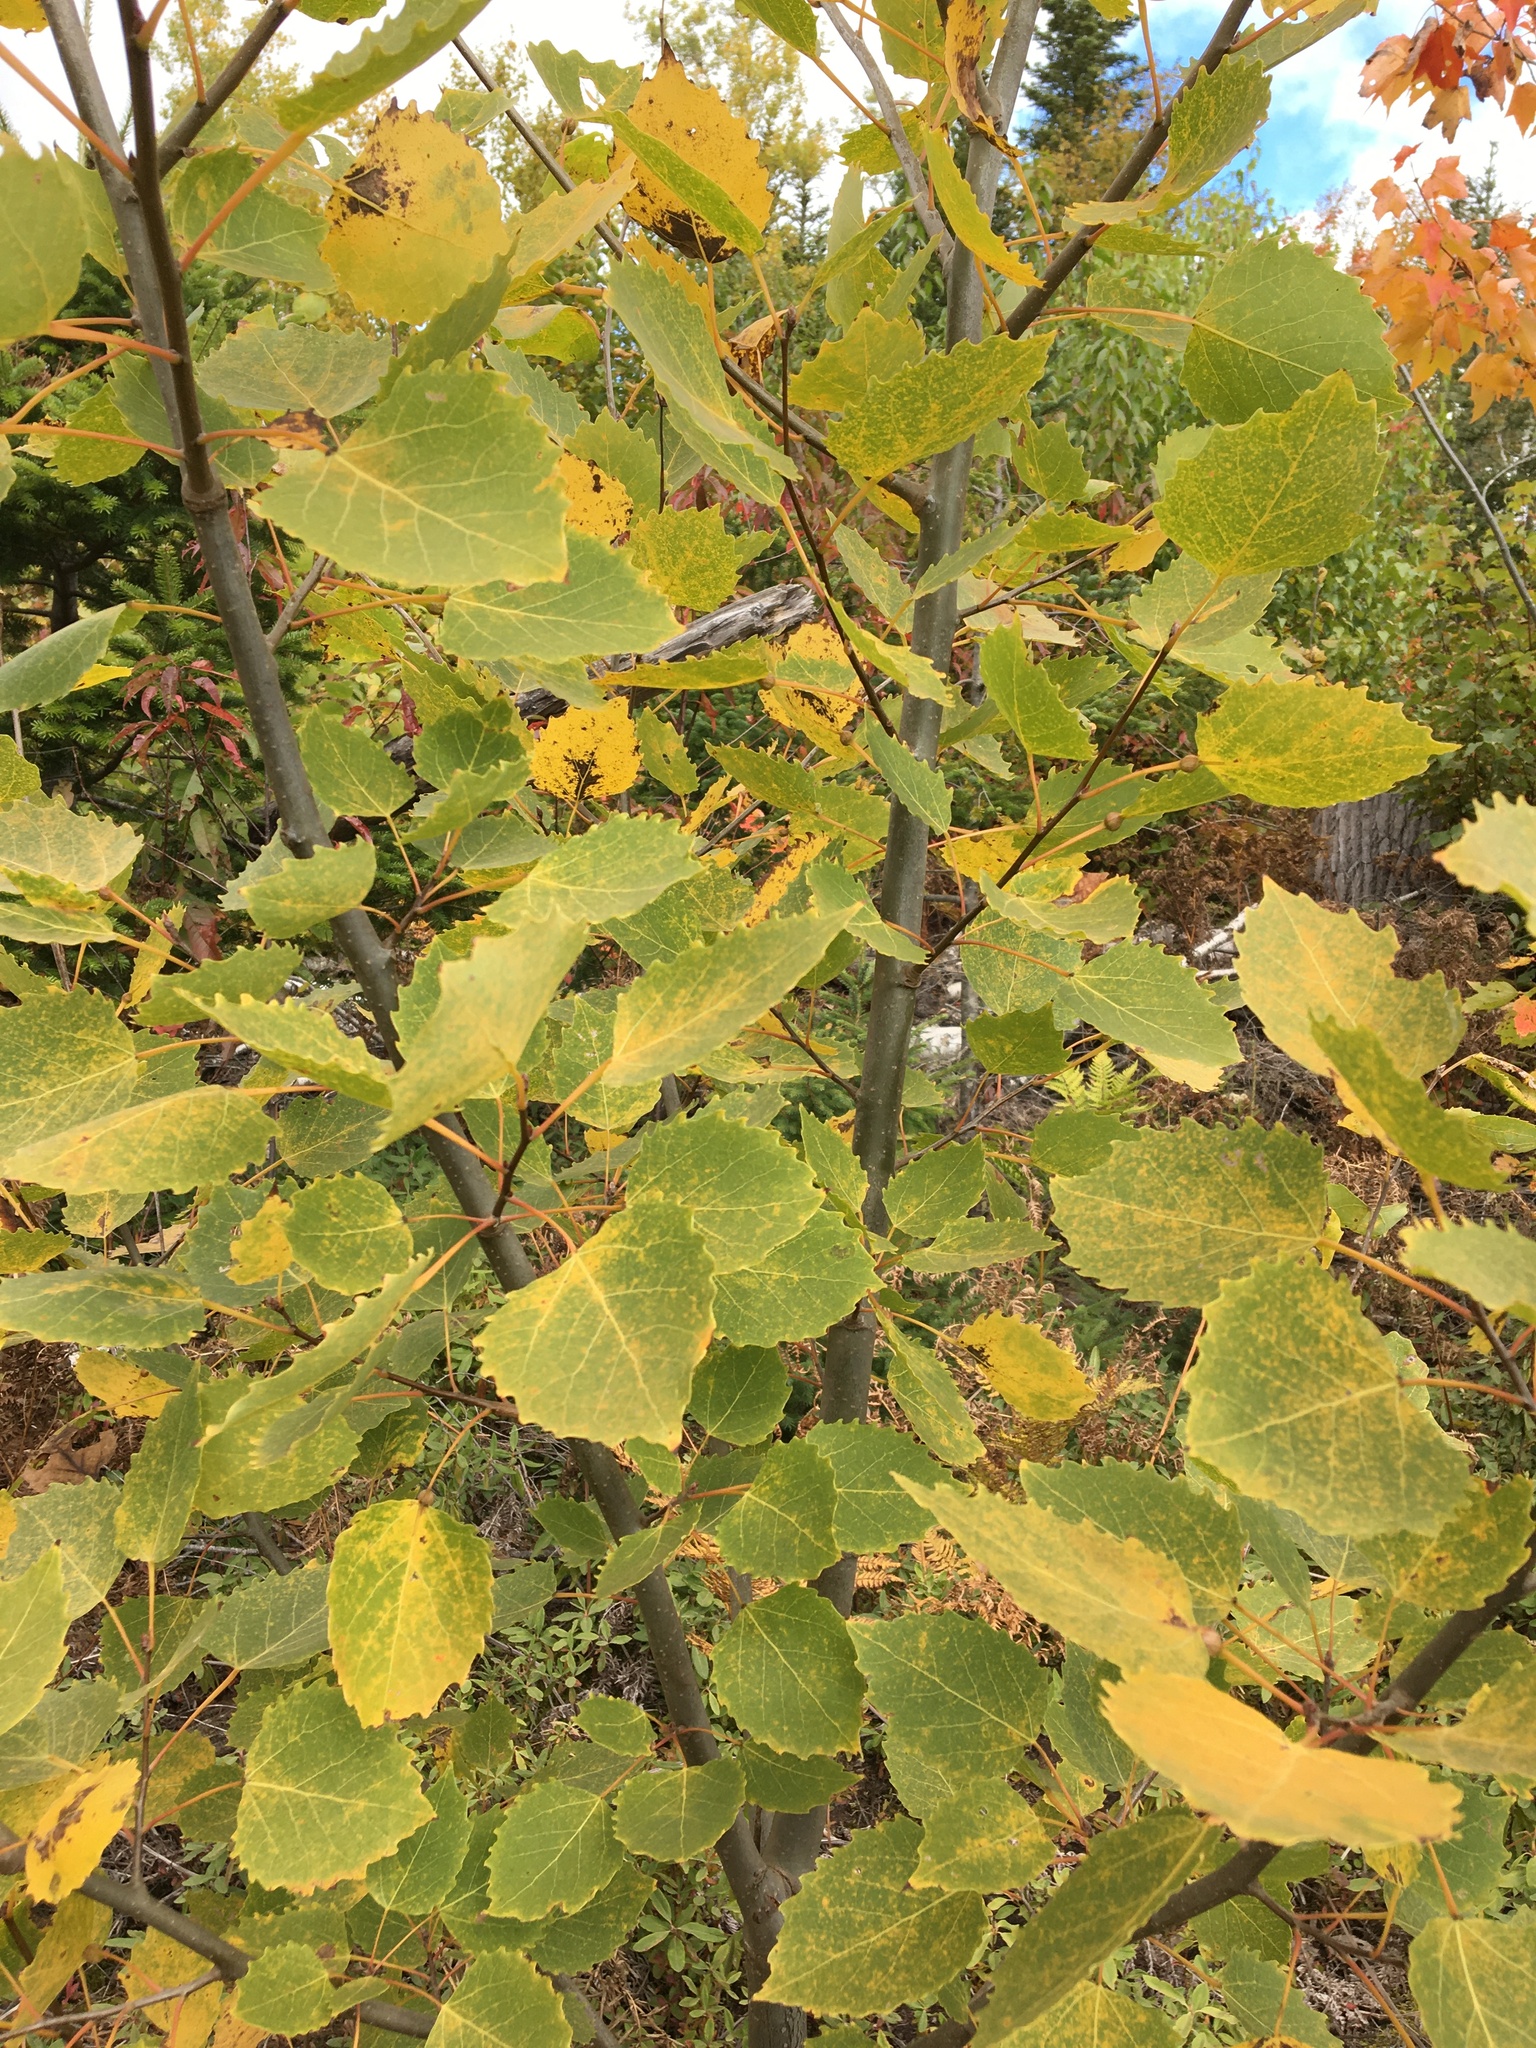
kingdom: Plantae
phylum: Tracheophyta
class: Magnoliopsida
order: Malpighiales
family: Salicaceae
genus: Populus
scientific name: Populus grandidentata
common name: Bigtooth aspen
